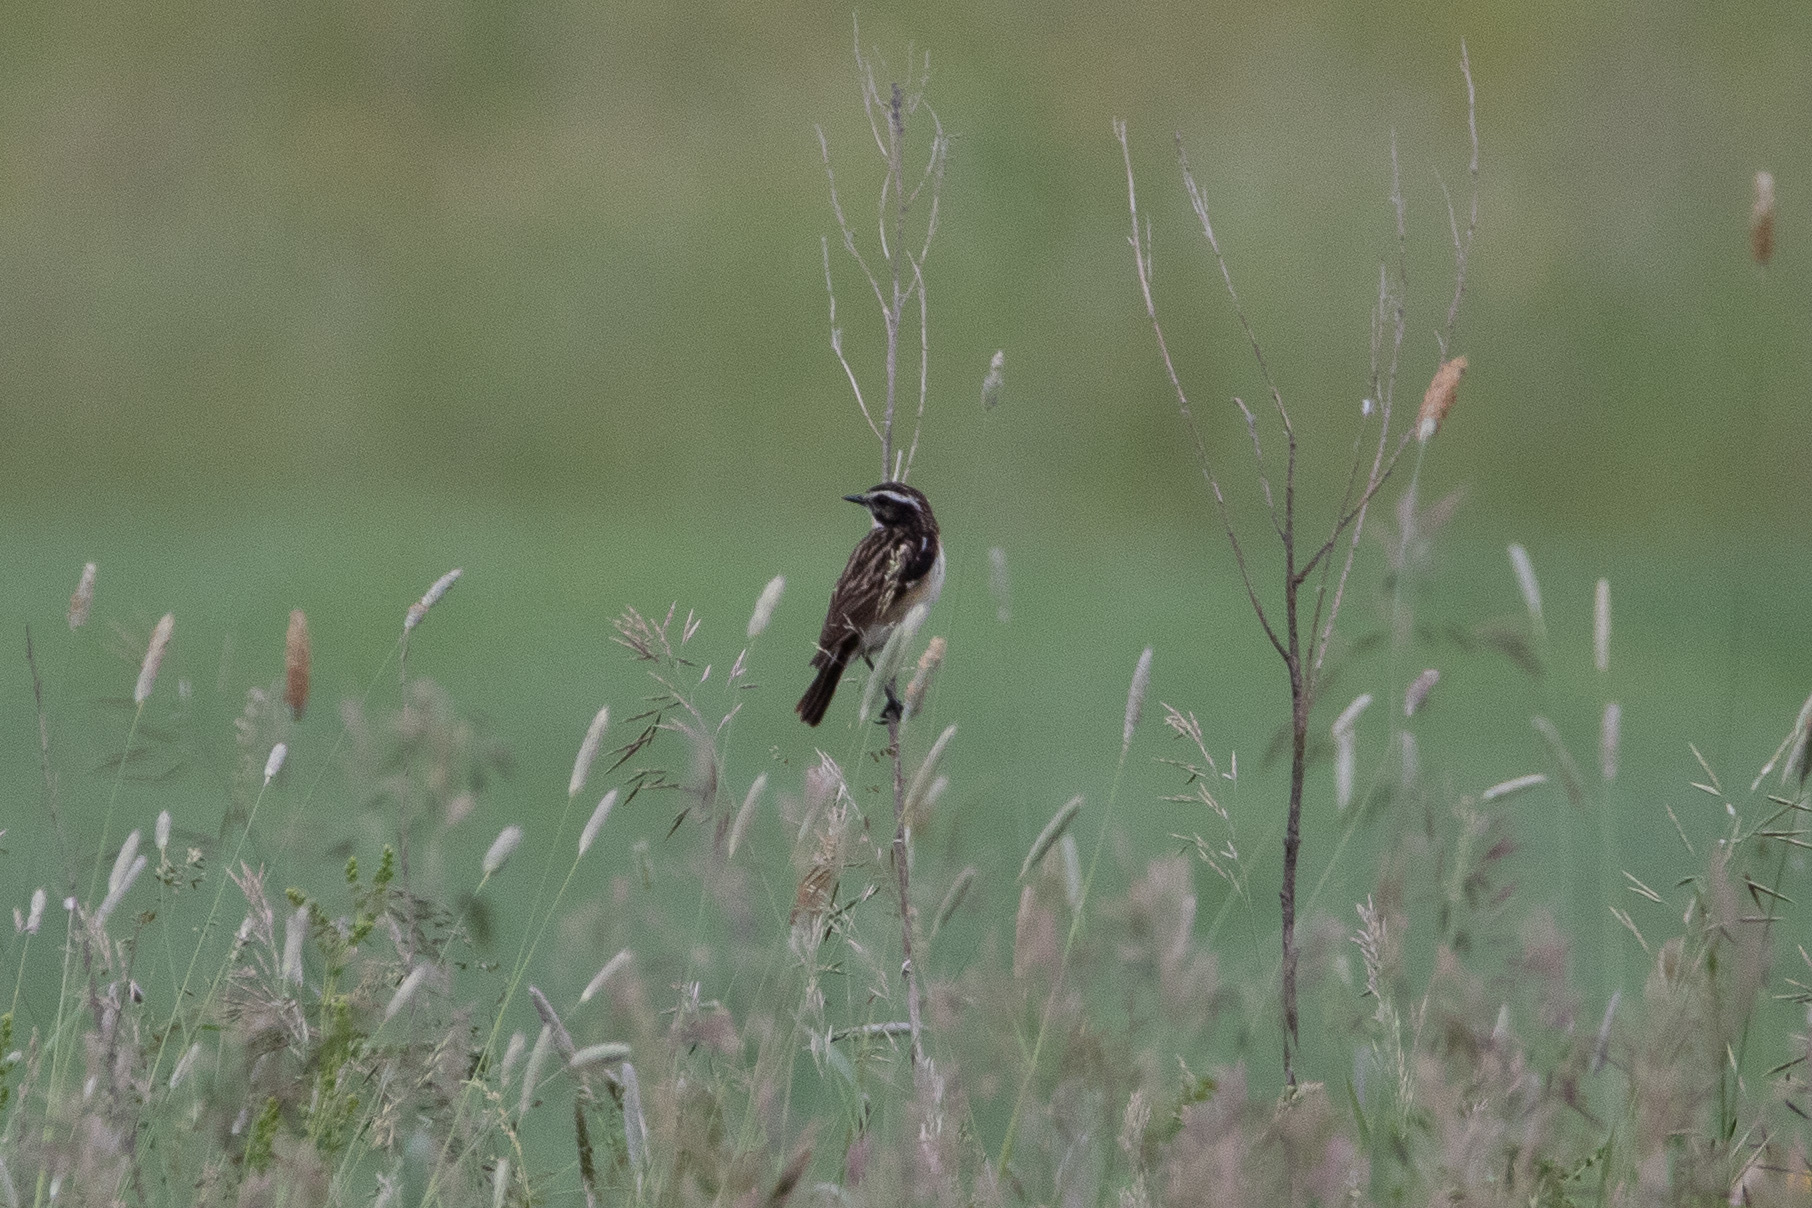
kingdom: Animalia
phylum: Chordata
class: Aves
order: Passeriformes
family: Muscicapidae
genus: Saxicola
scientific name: Saxicola rubetra
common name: Whinchat
